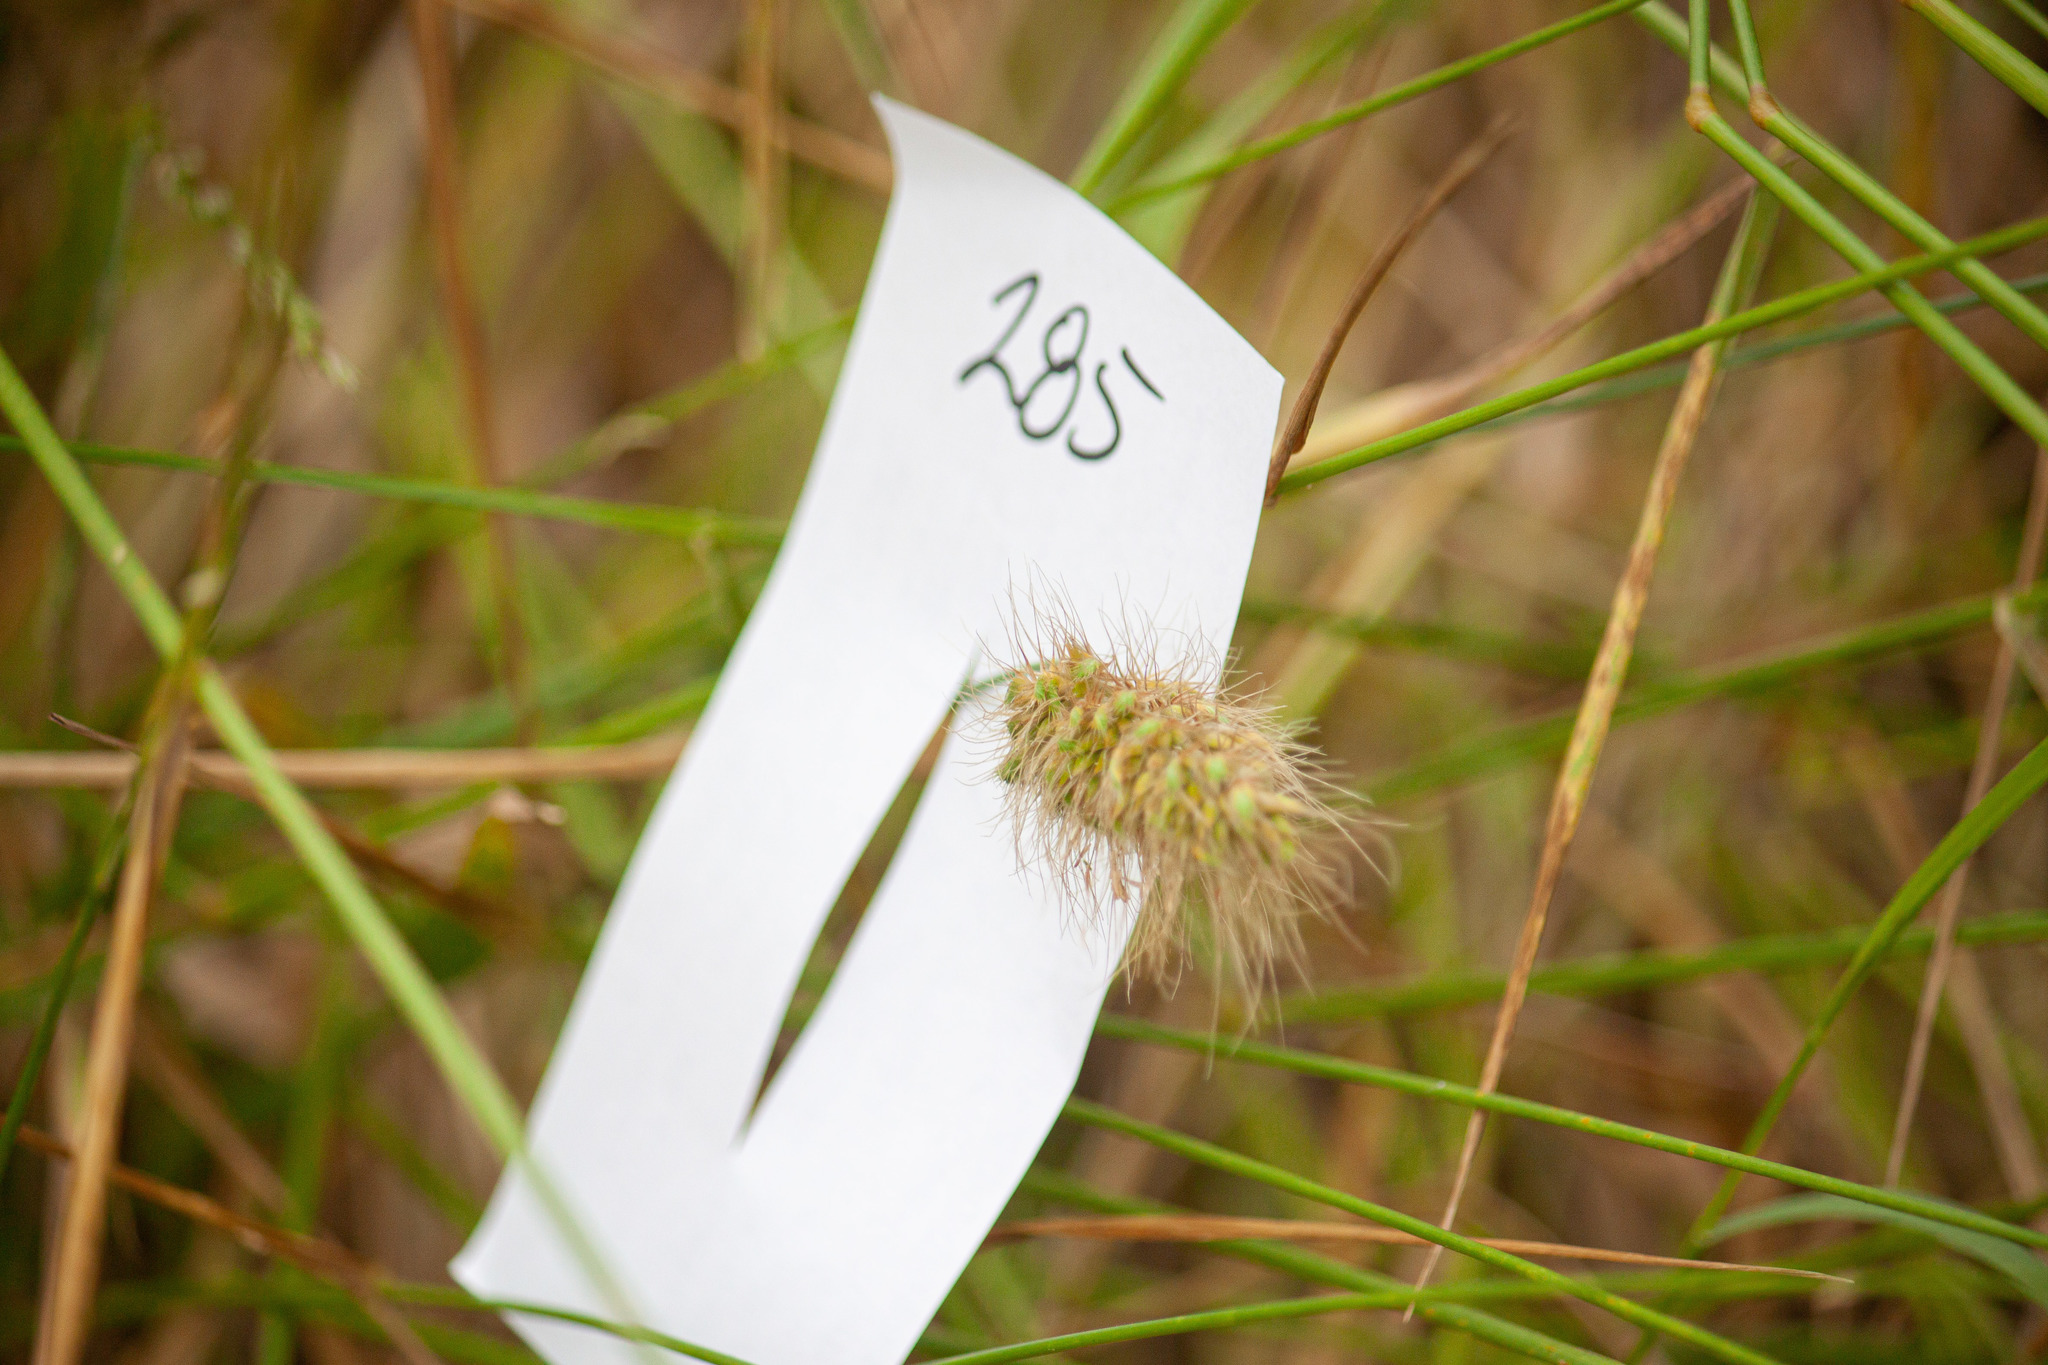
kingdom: Plantae
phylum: Tracheophyta
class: Liliopsida
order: Poales
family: Poaceae
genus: Cynosurus
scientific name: Cynosurus echinatus
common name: Rough dog's-tail
